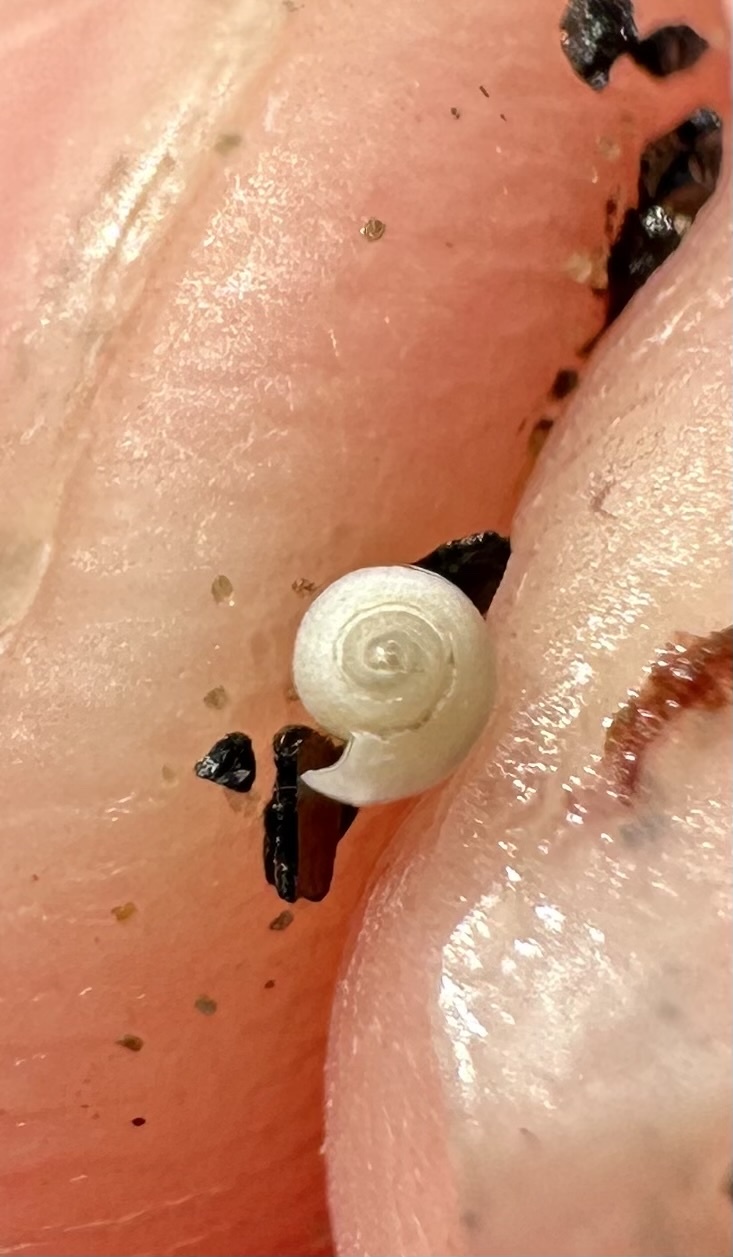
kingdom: Animalia
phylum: Mollusca
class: Gastropoda
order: Cephalaspidea
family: Tornatinidae
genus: Acteocina
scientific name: Acteocina canaliculata
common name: Channeled barrel-bubble
